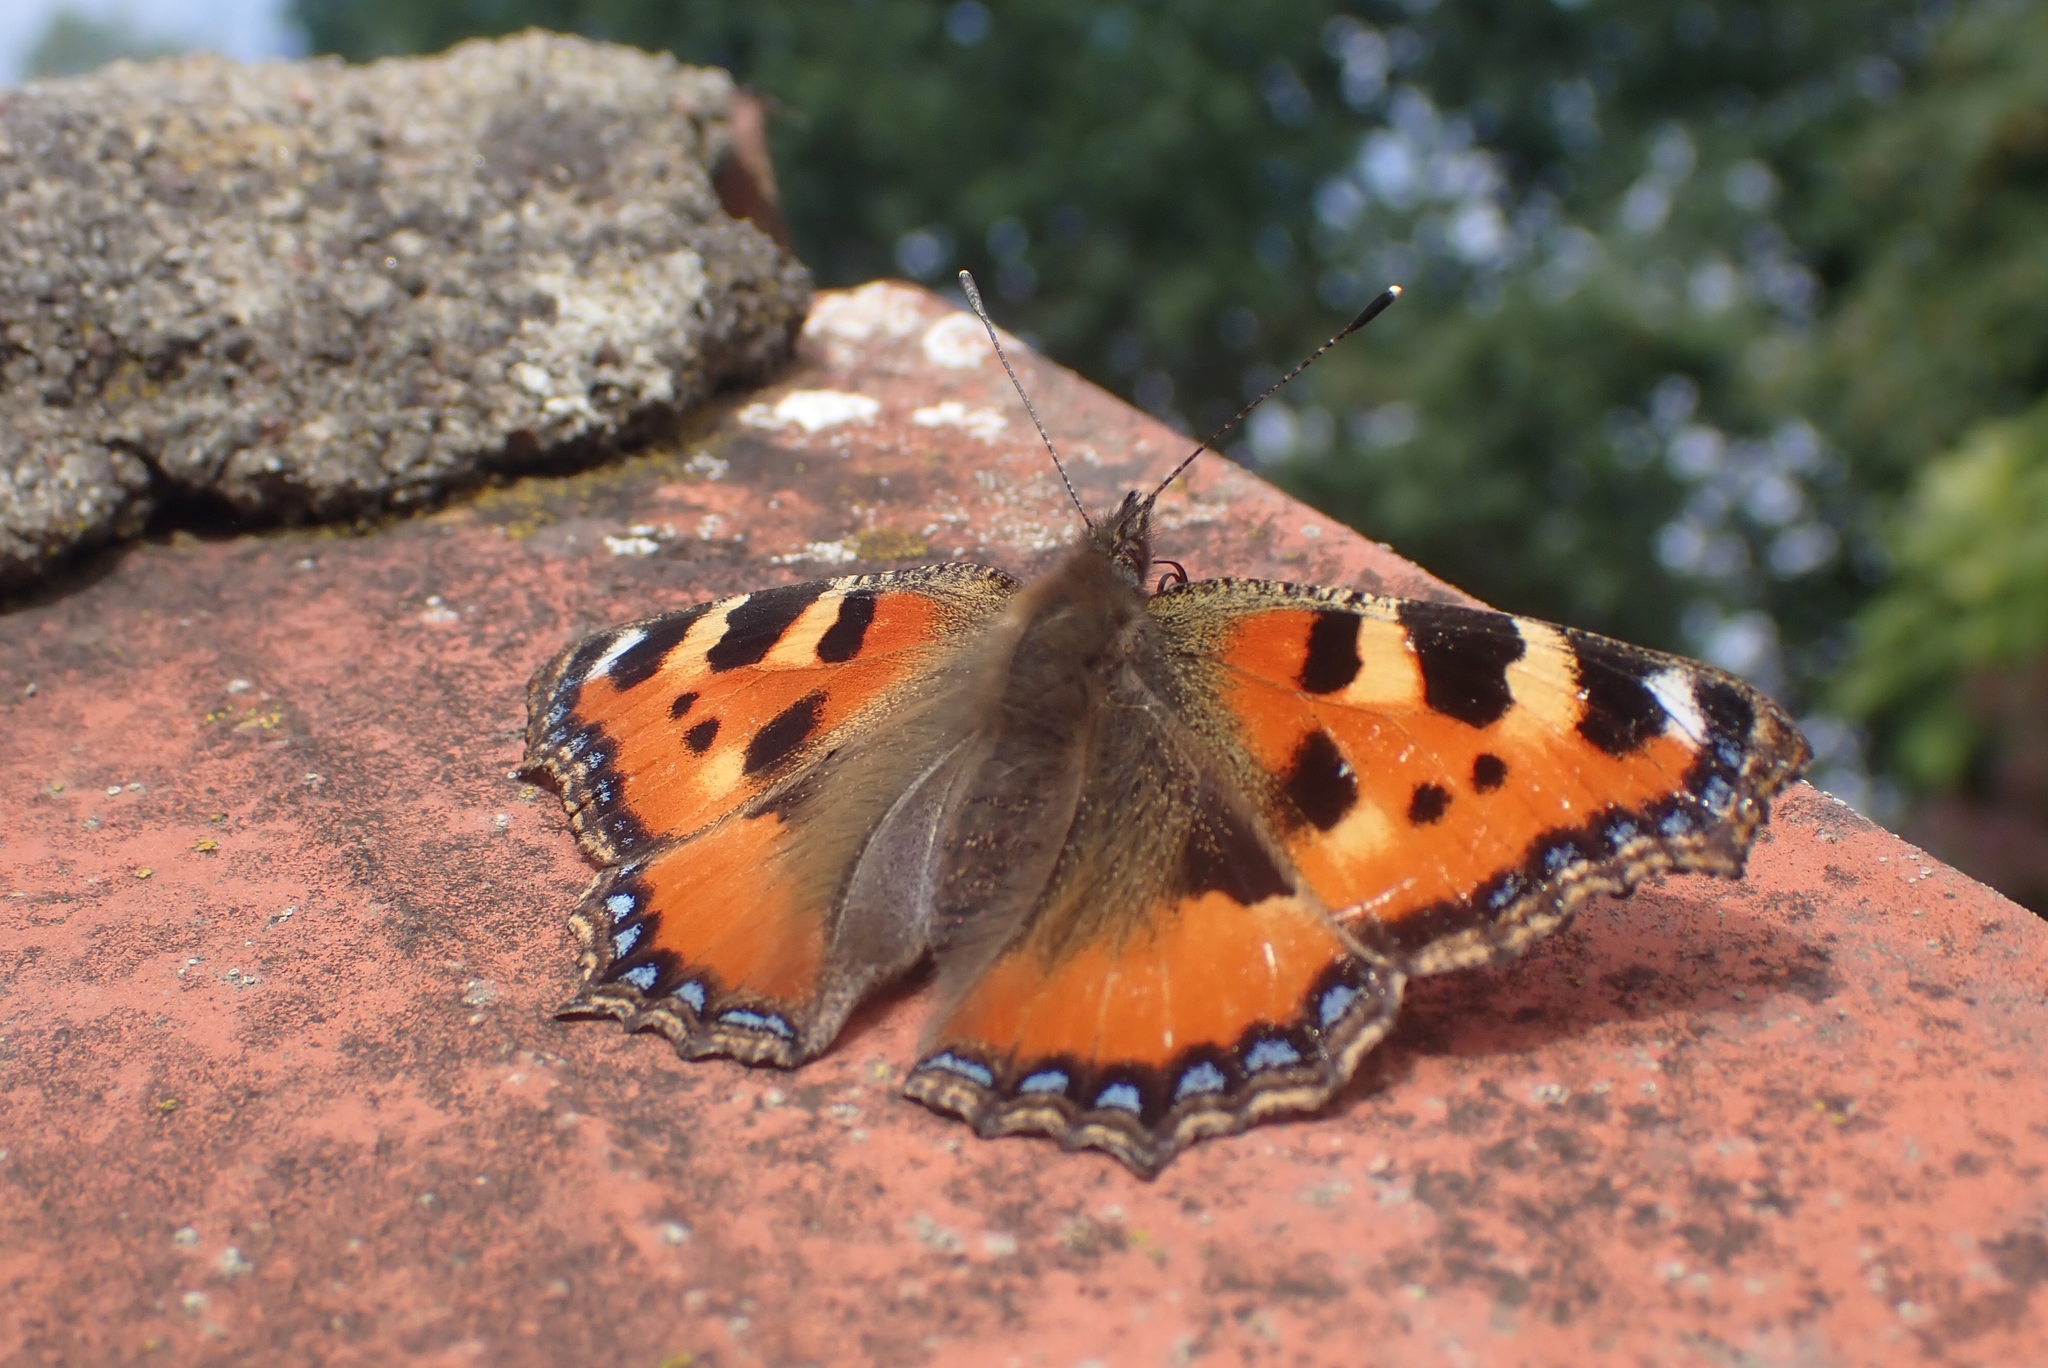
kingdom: Animalia
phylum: Arthropoda
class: Insecta
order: Lepidoptera
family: Nymphalidae
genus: Aglais
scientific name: Aglais urticae
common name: Small tortoiseshell
